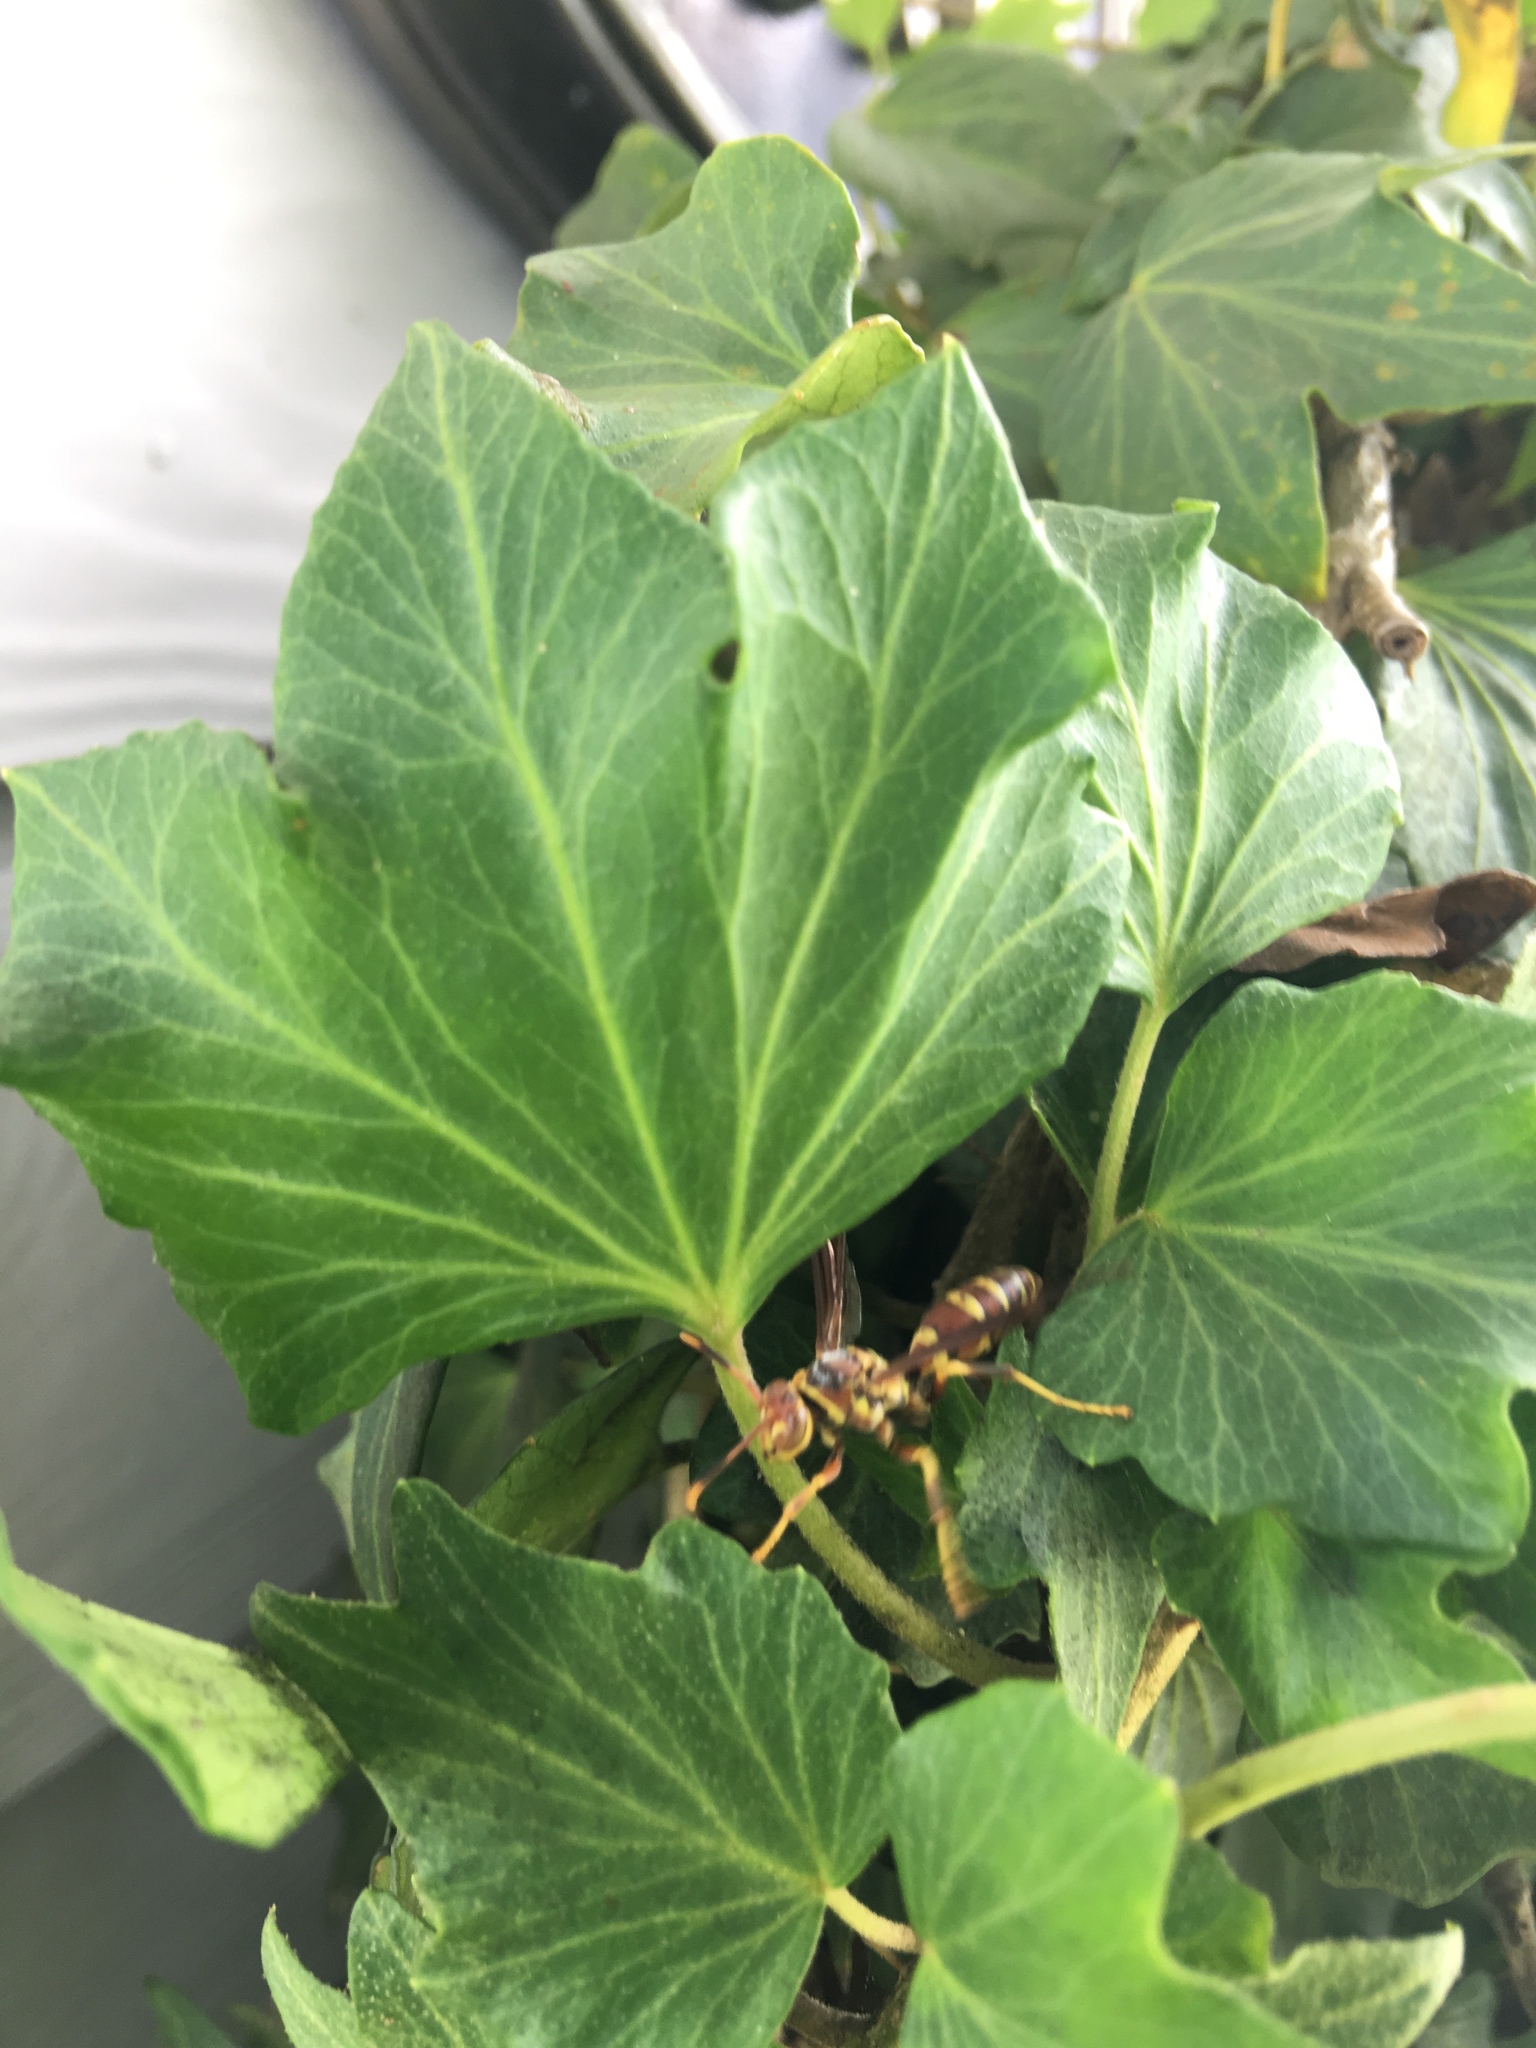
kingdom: Animalia
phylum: Arthropoda
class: Insecta
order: Hymenoptera
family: Eumenidae
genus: Polistes
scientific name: Polistes exclamans
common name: Paper wasp
